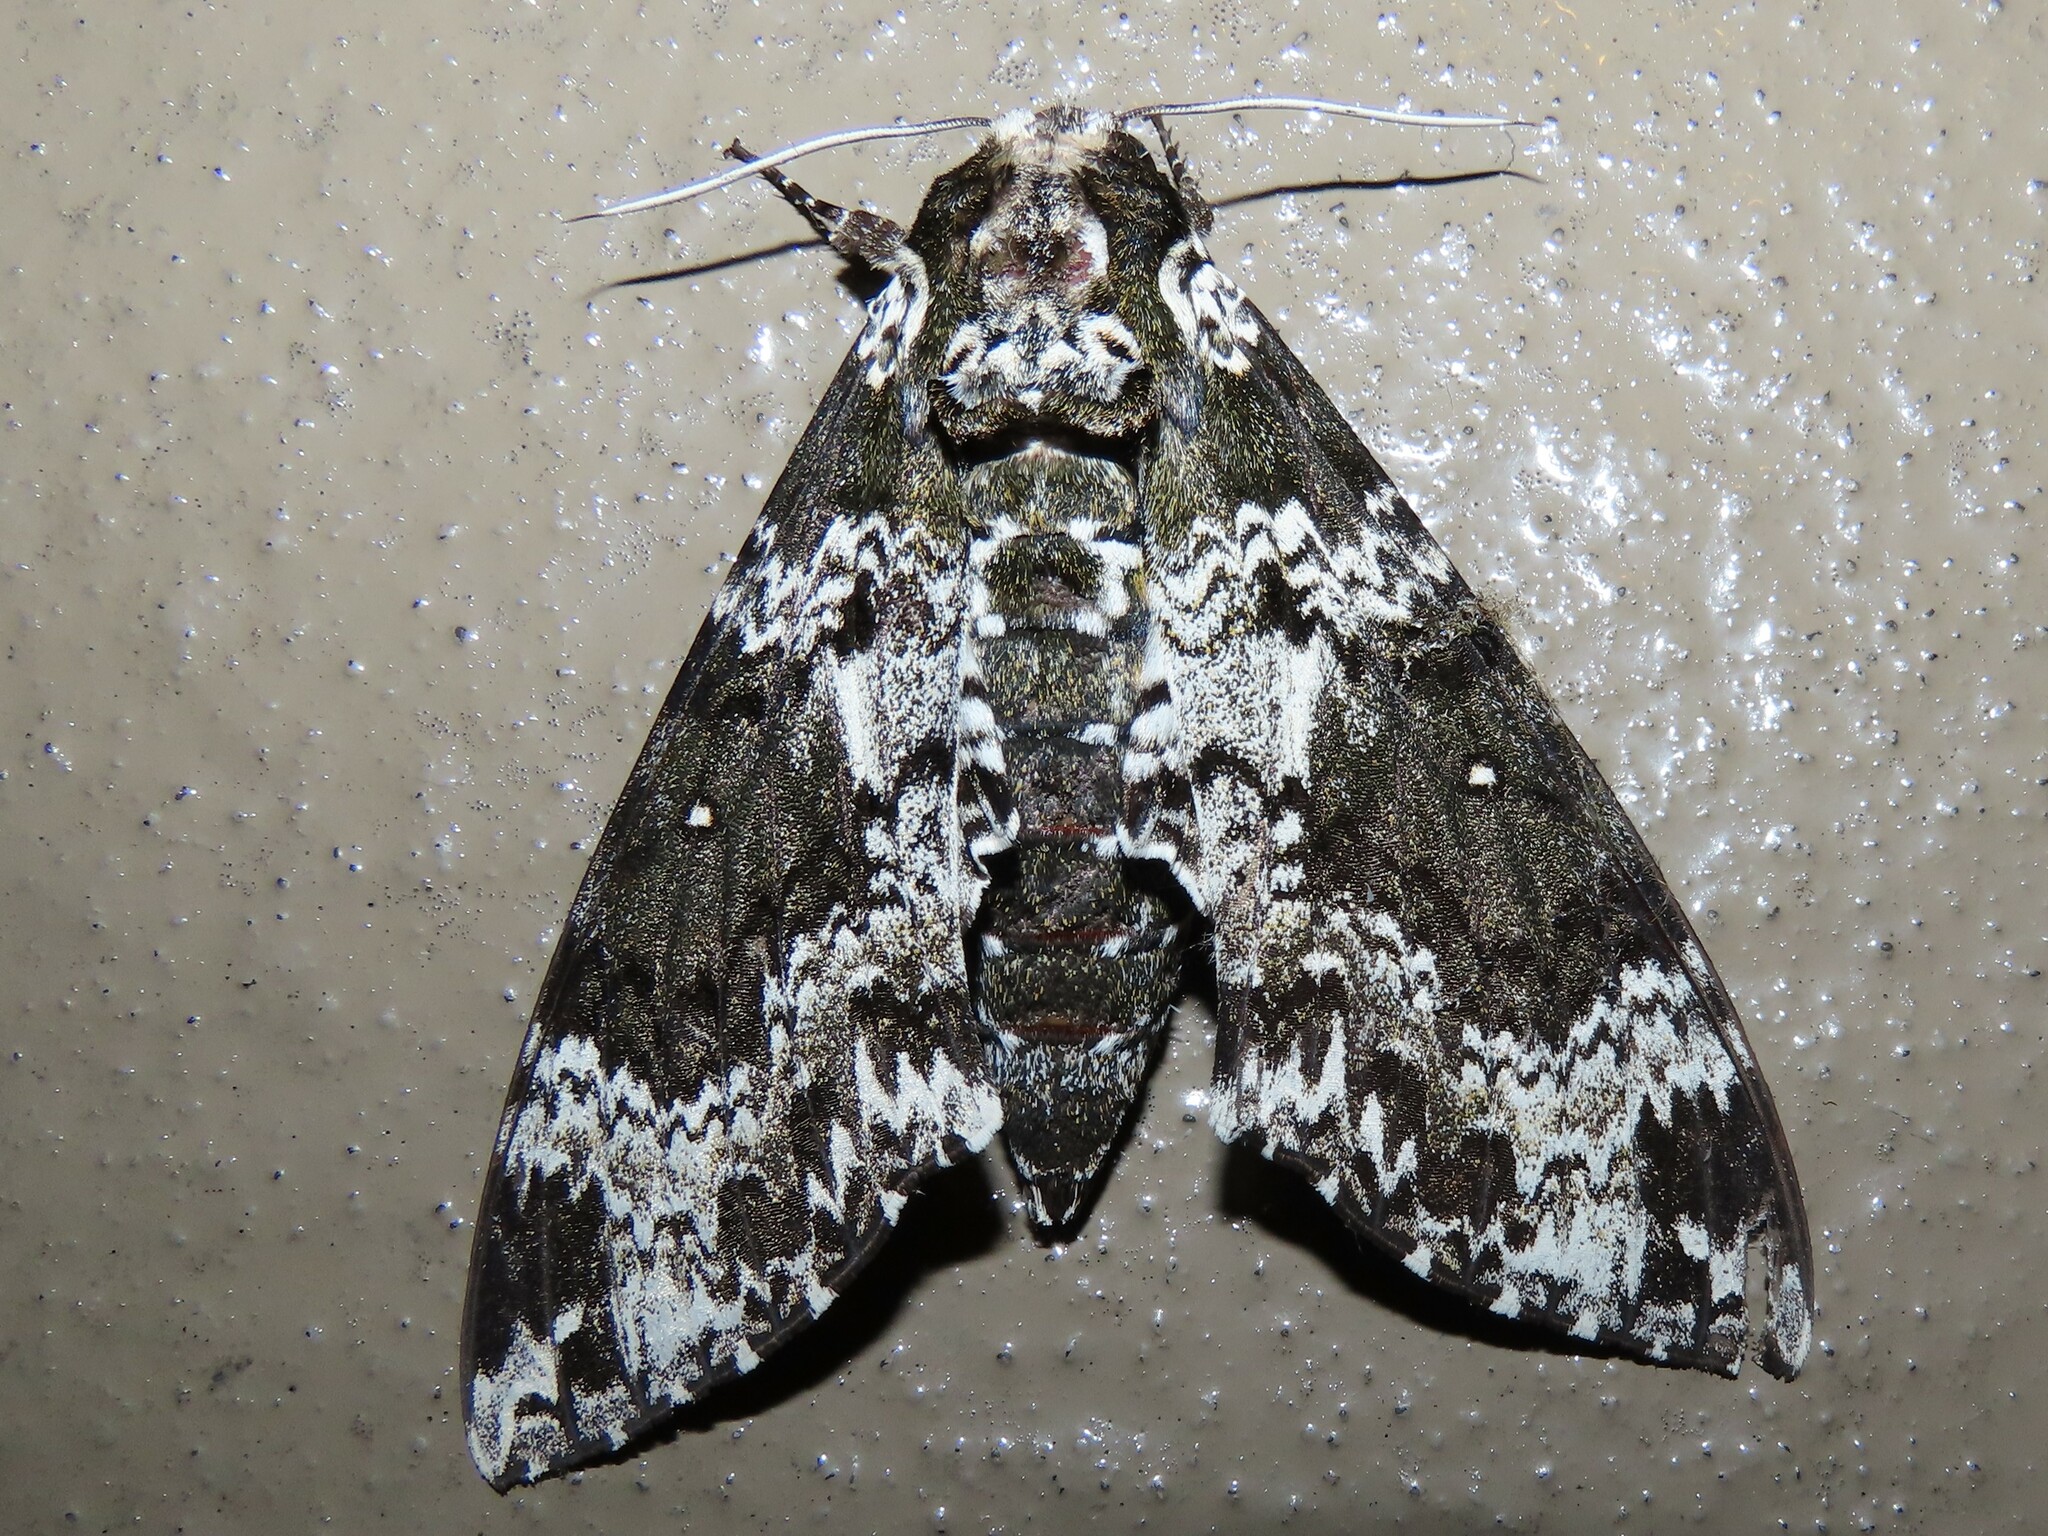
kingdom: Animalia
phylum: Arthropoda
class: Insecta
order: Lepidoptera
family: Sphingidae
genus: Manduca
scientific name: Manduca rustica
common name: Rustic sphinx
